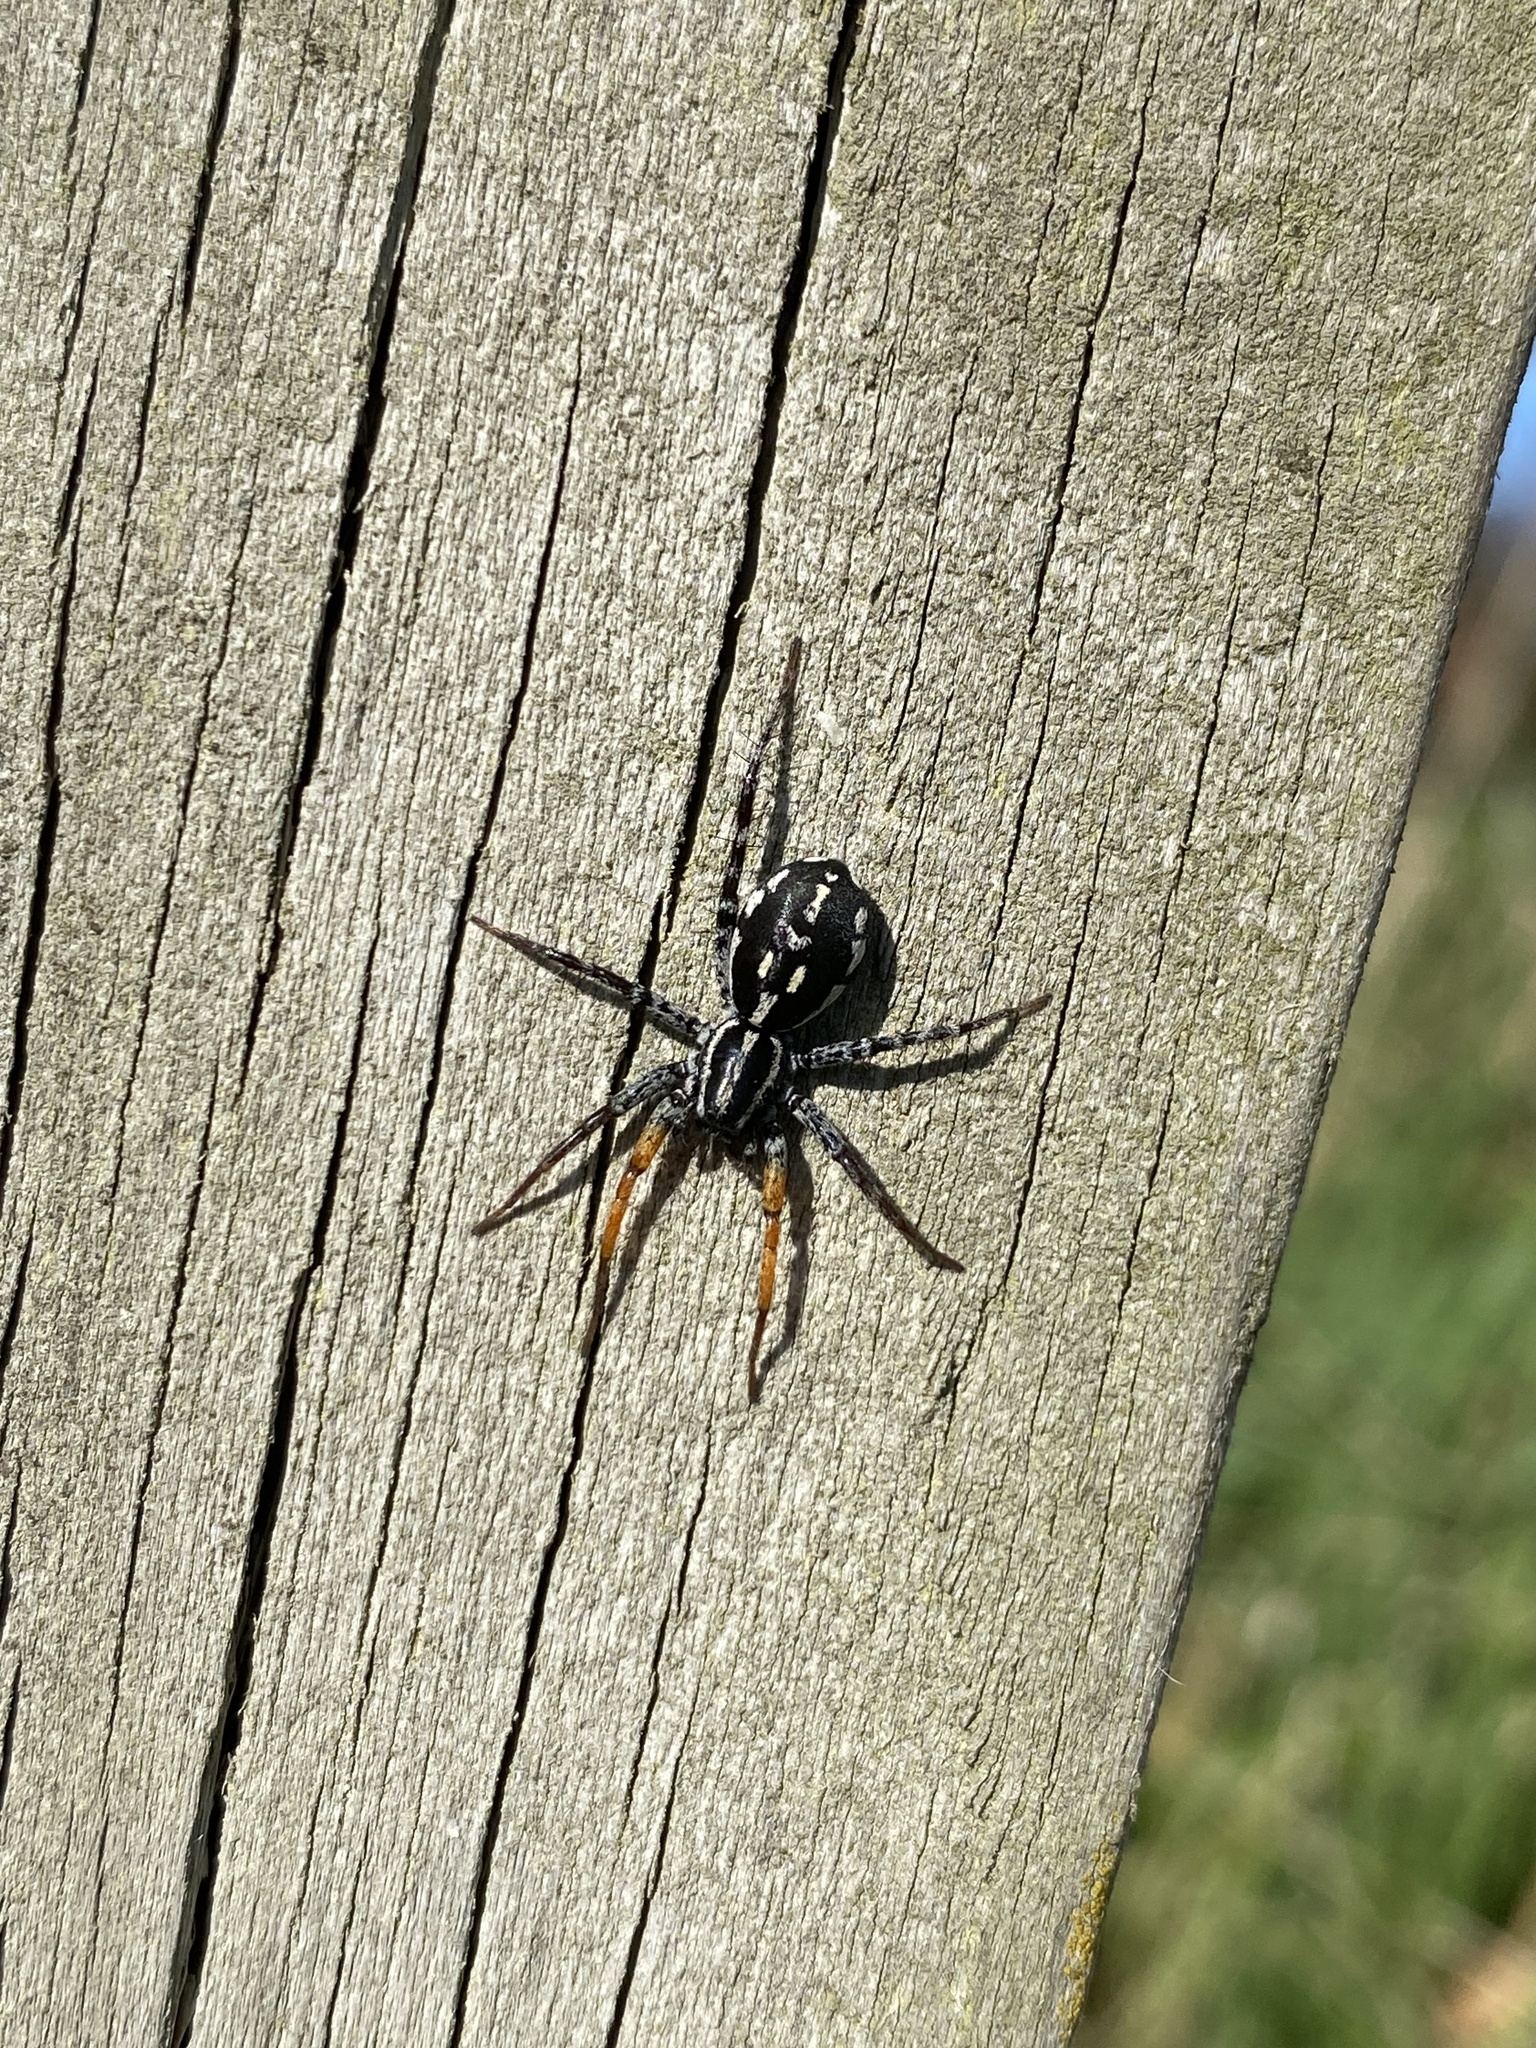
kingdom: Animalia
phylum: Arthropoda
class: Arachnida
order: Araneae
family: Corinnidae
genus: Nyssus
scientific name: Nyssus coloripes
